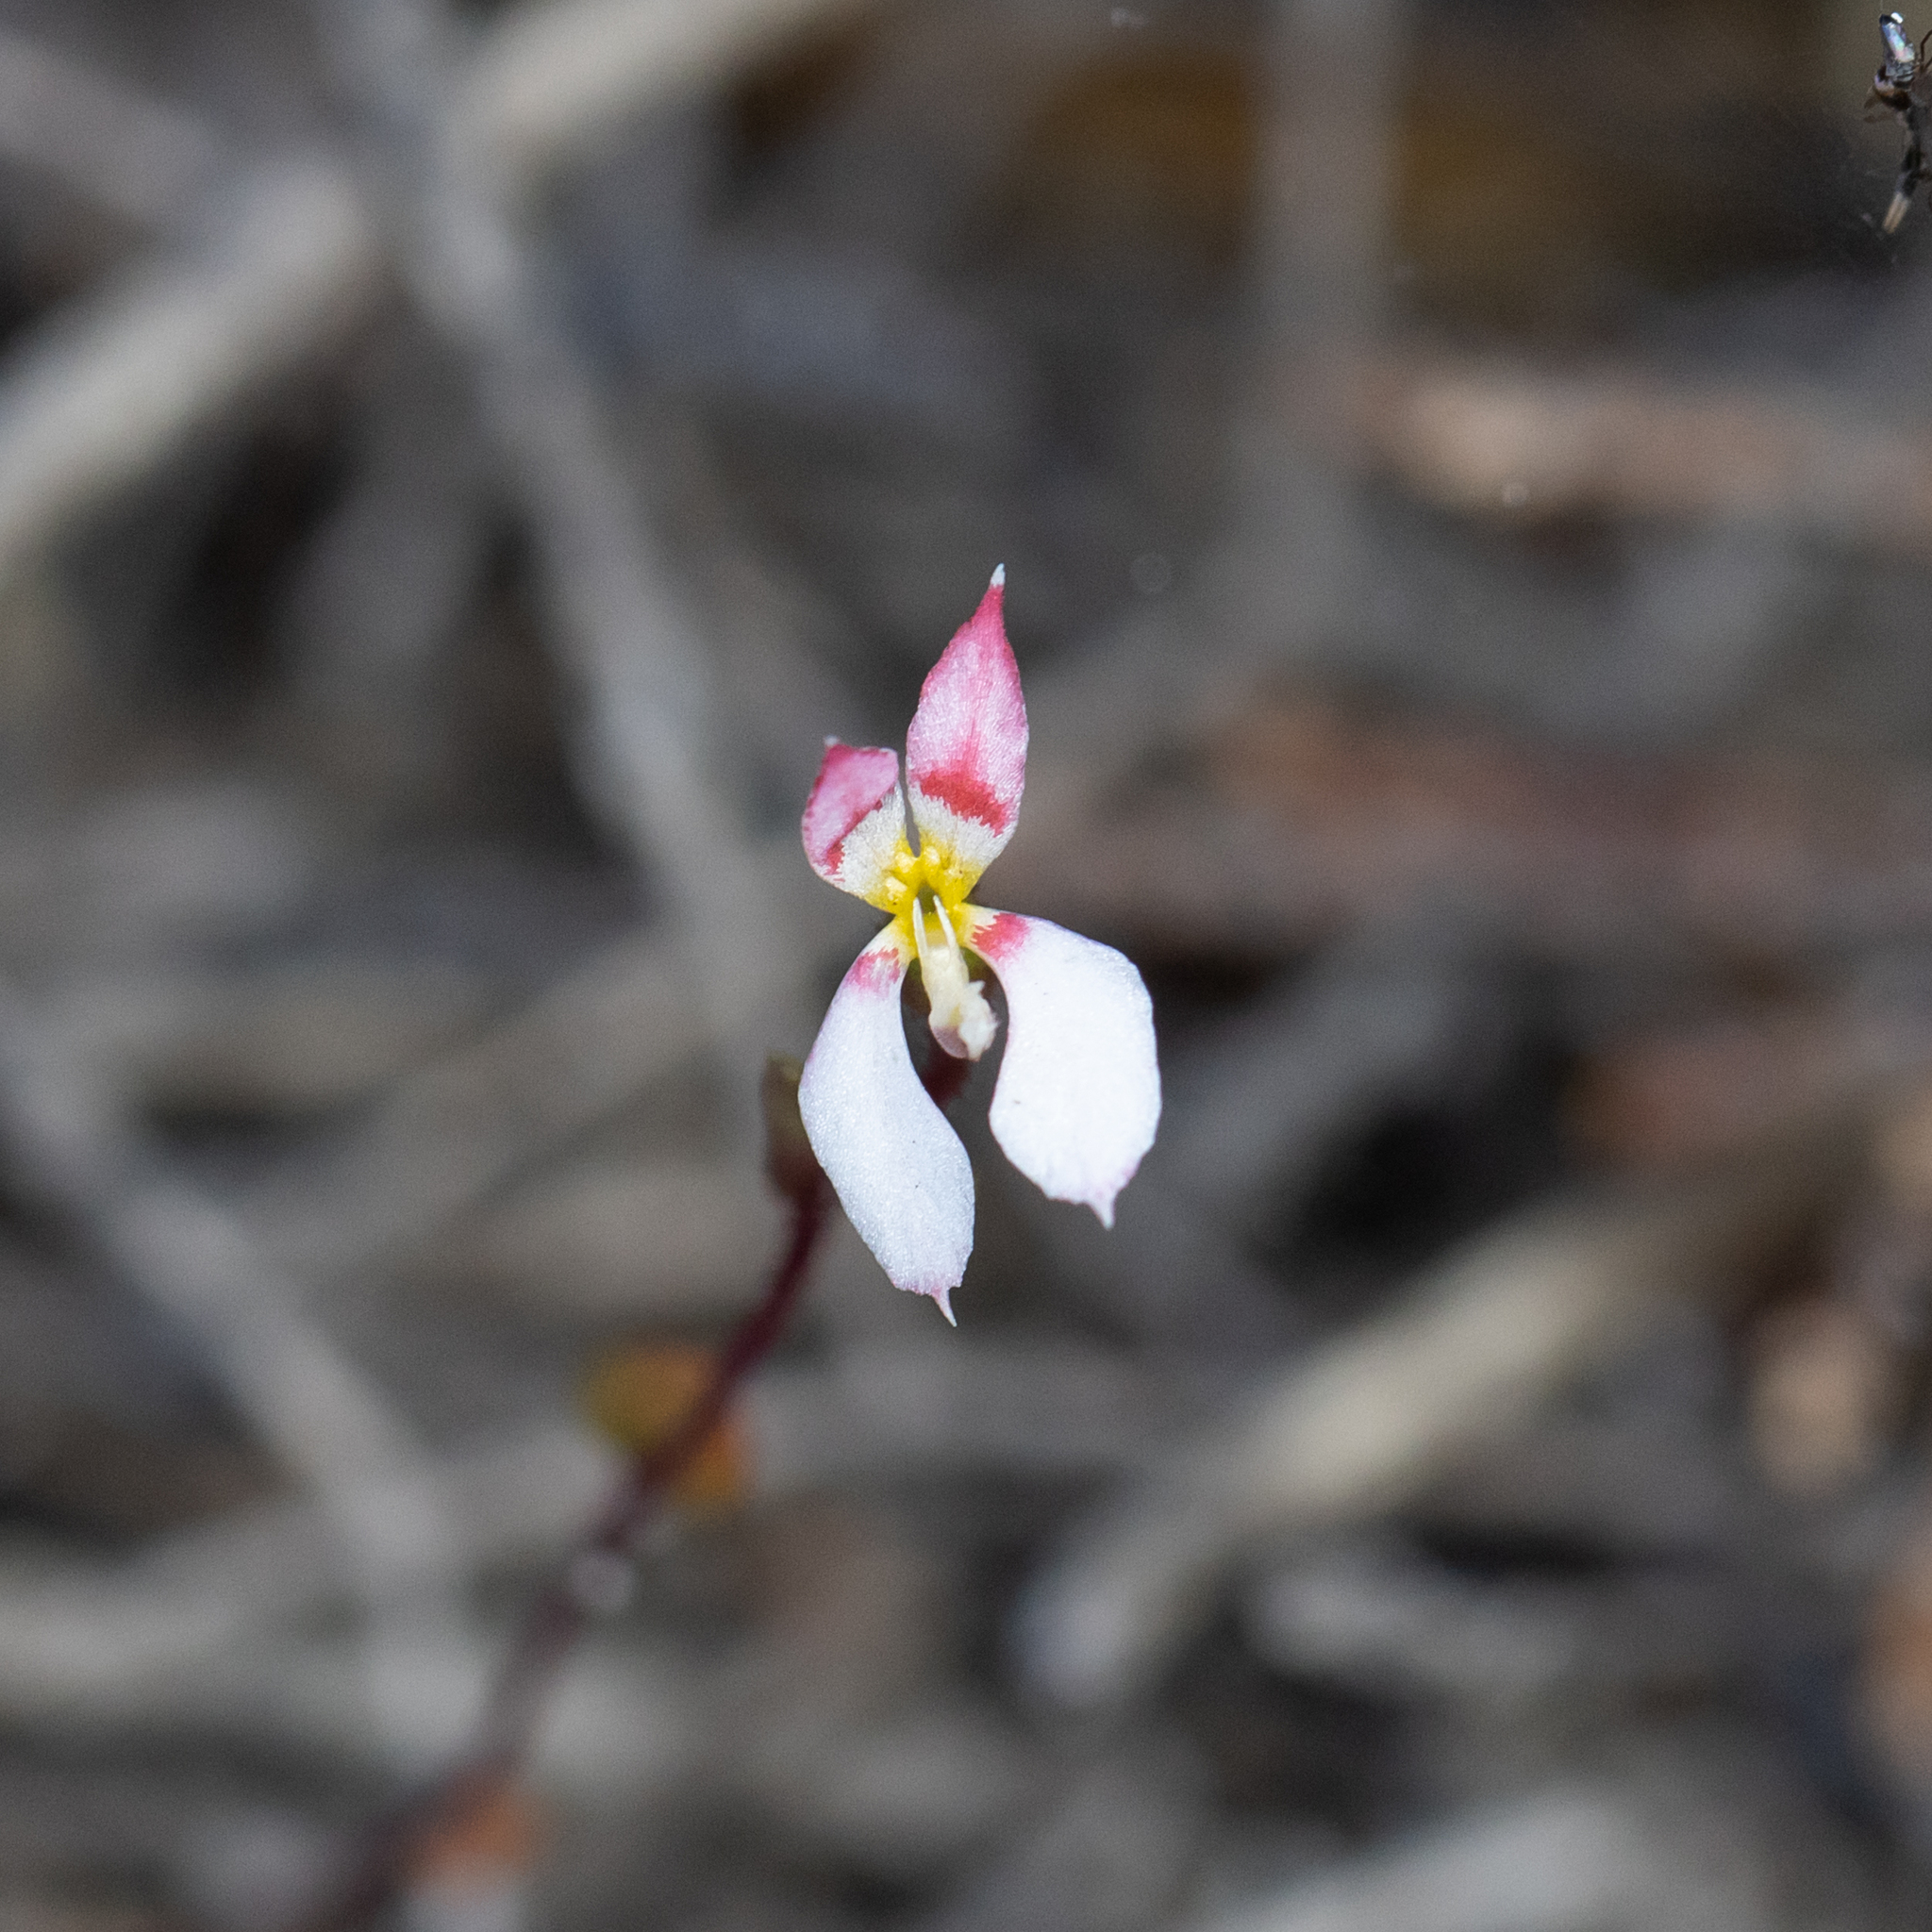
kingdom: Plantae
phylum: Tracheophyta
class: Magnoliopsida
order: Asterales
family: Stylidiaceae
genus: Levenhookia
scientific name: Levenhookia pauciflora
